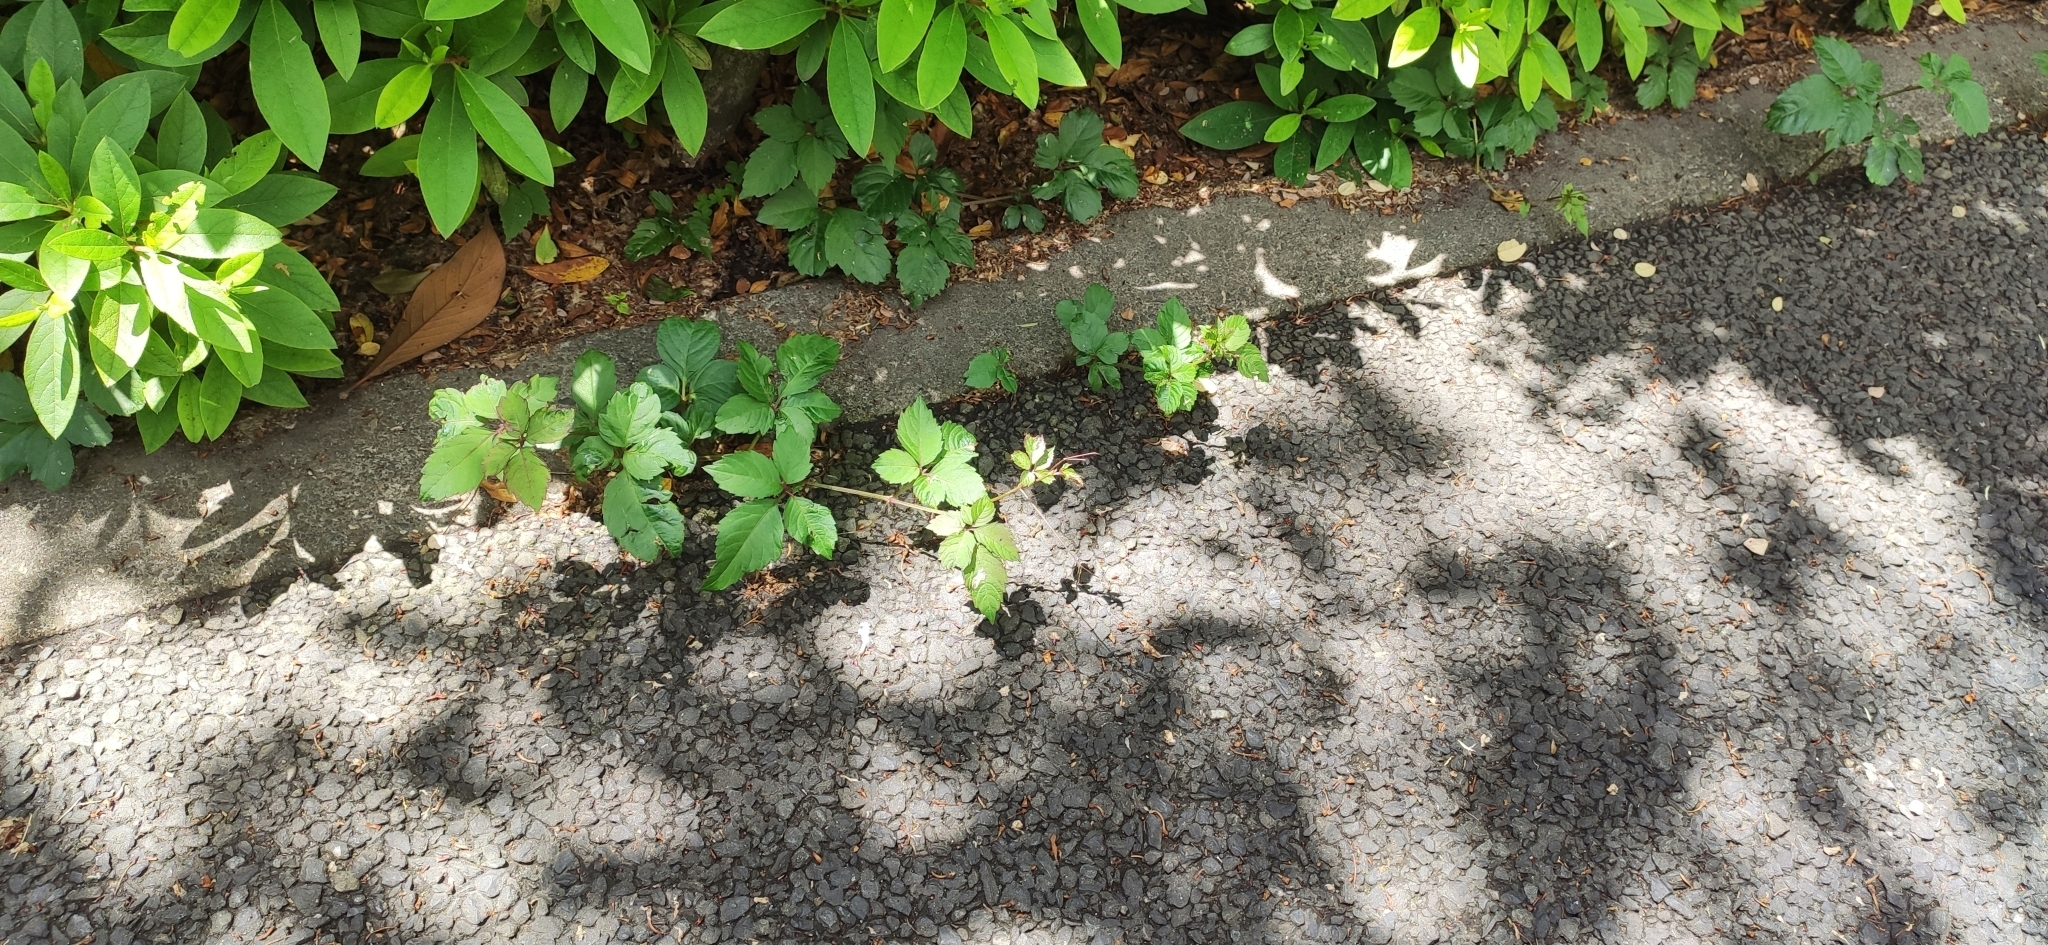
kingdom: Plantae
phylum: Tracheophyta
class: Magnoliopsida
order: Vitales
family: Vitaceae
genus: Causonis
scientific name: Causonis japonica
